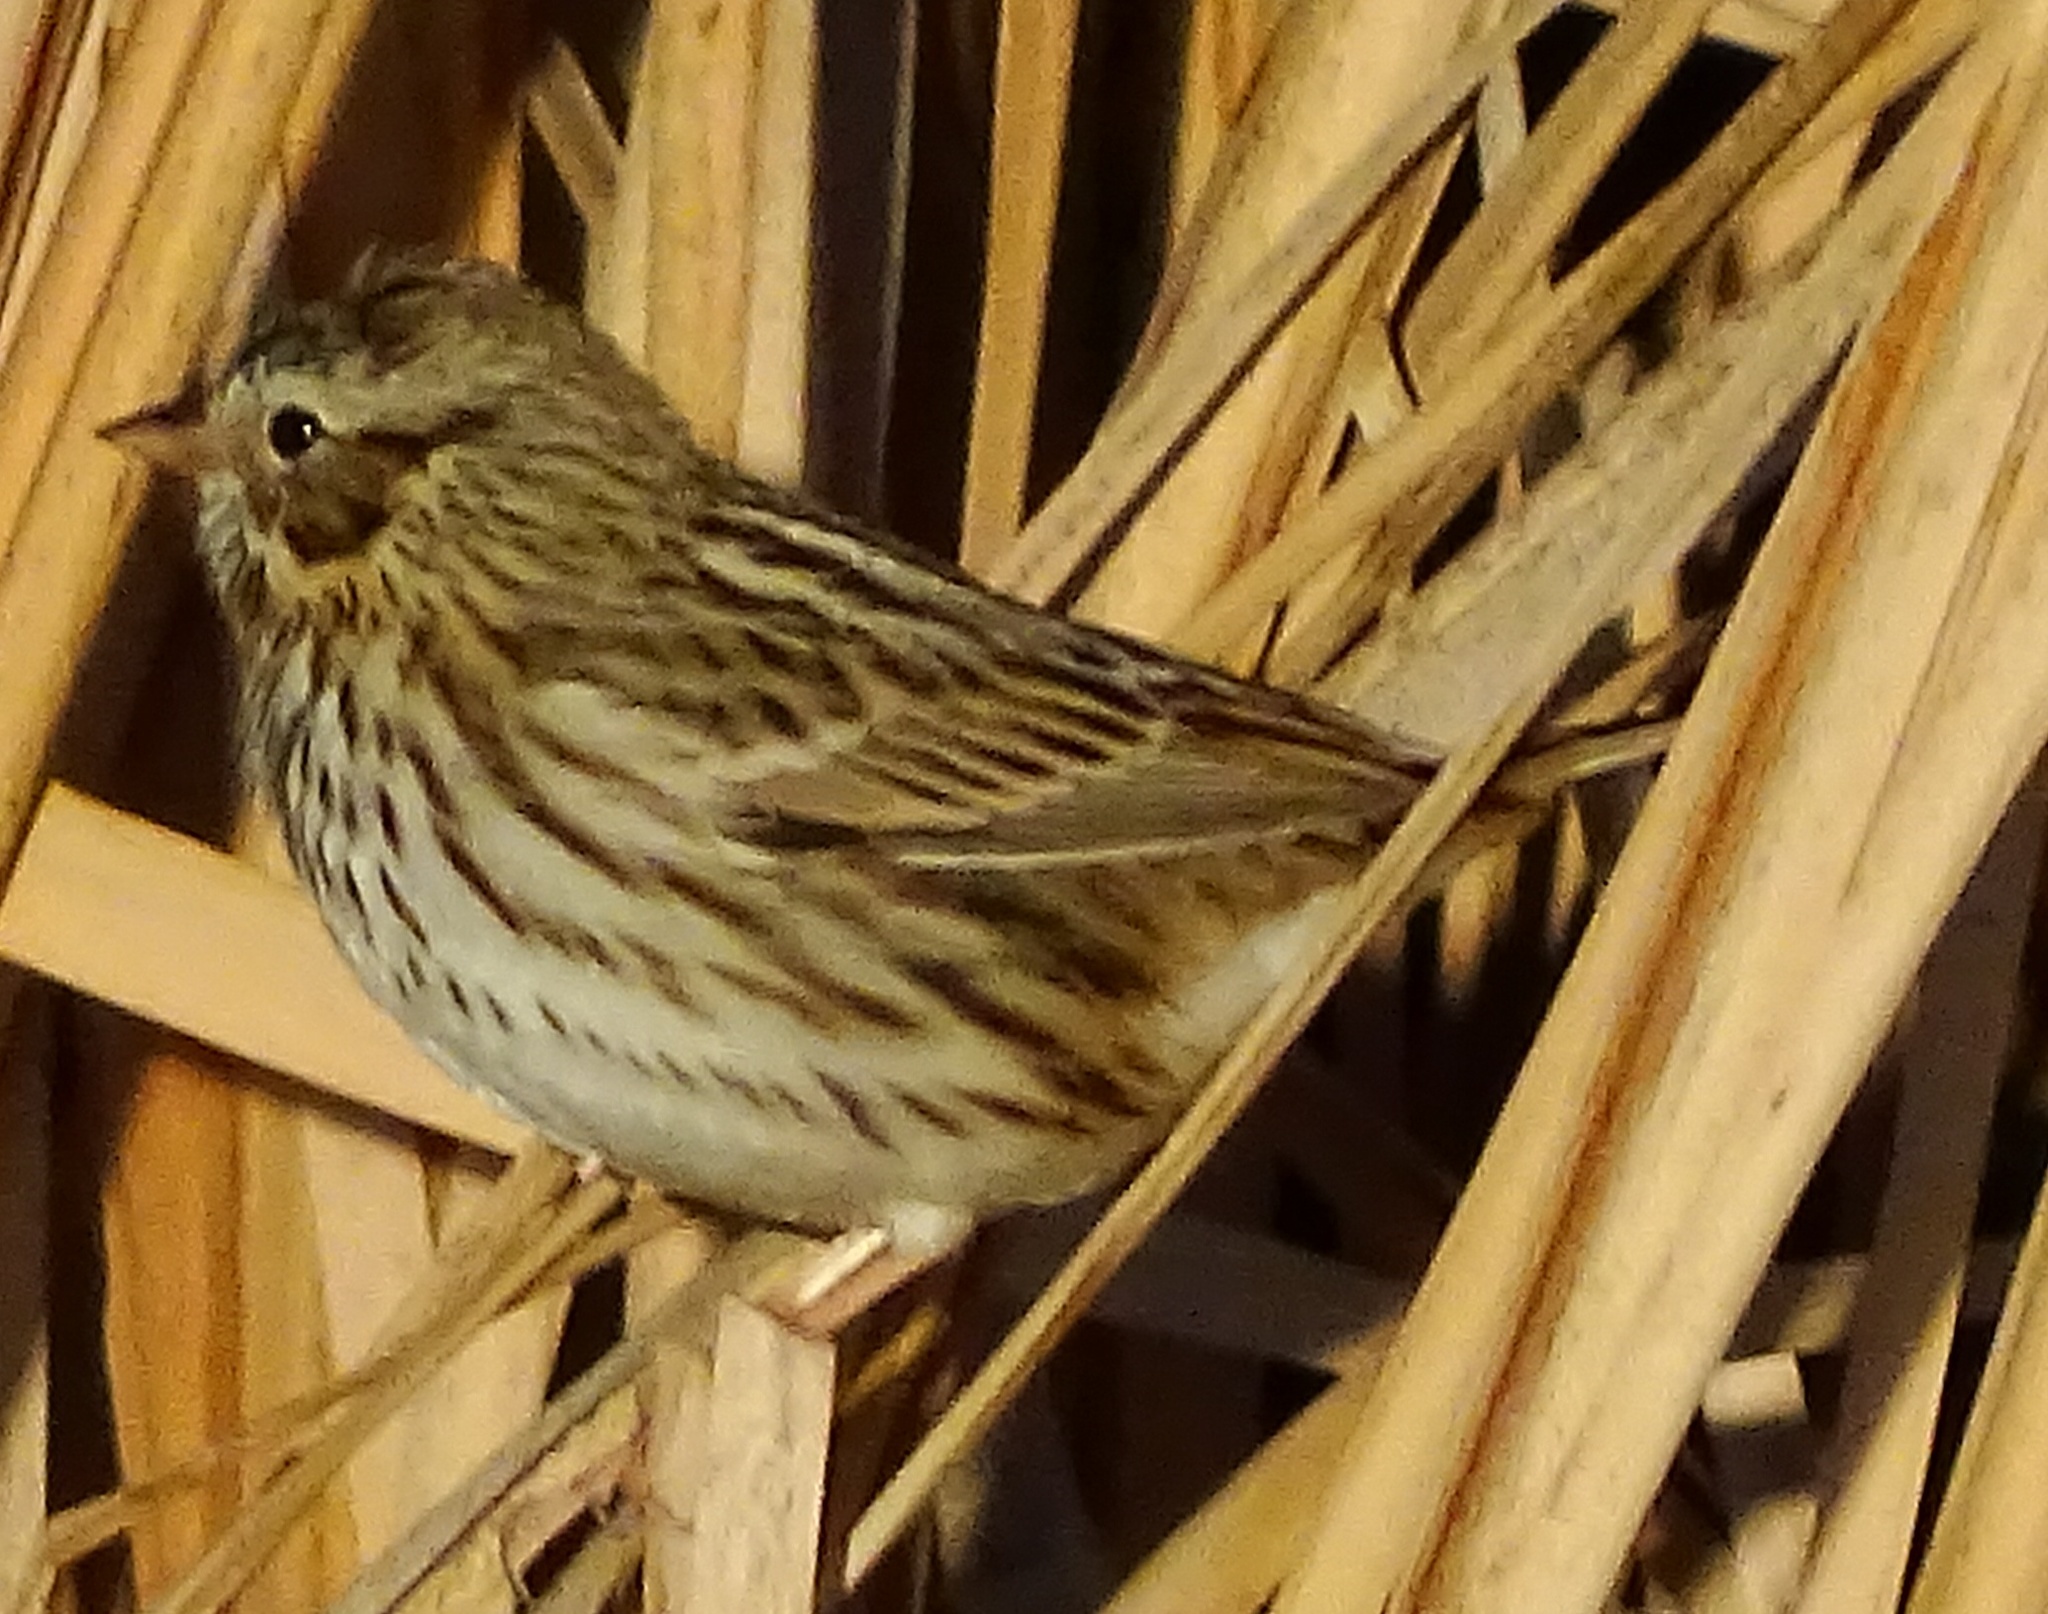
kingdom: Animalia
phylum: Chordata
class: Aves
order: Passeriformes
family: Passerellidae
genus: Passerculus
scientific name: Passerculus sandwichensis
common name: Savannah sparrow
